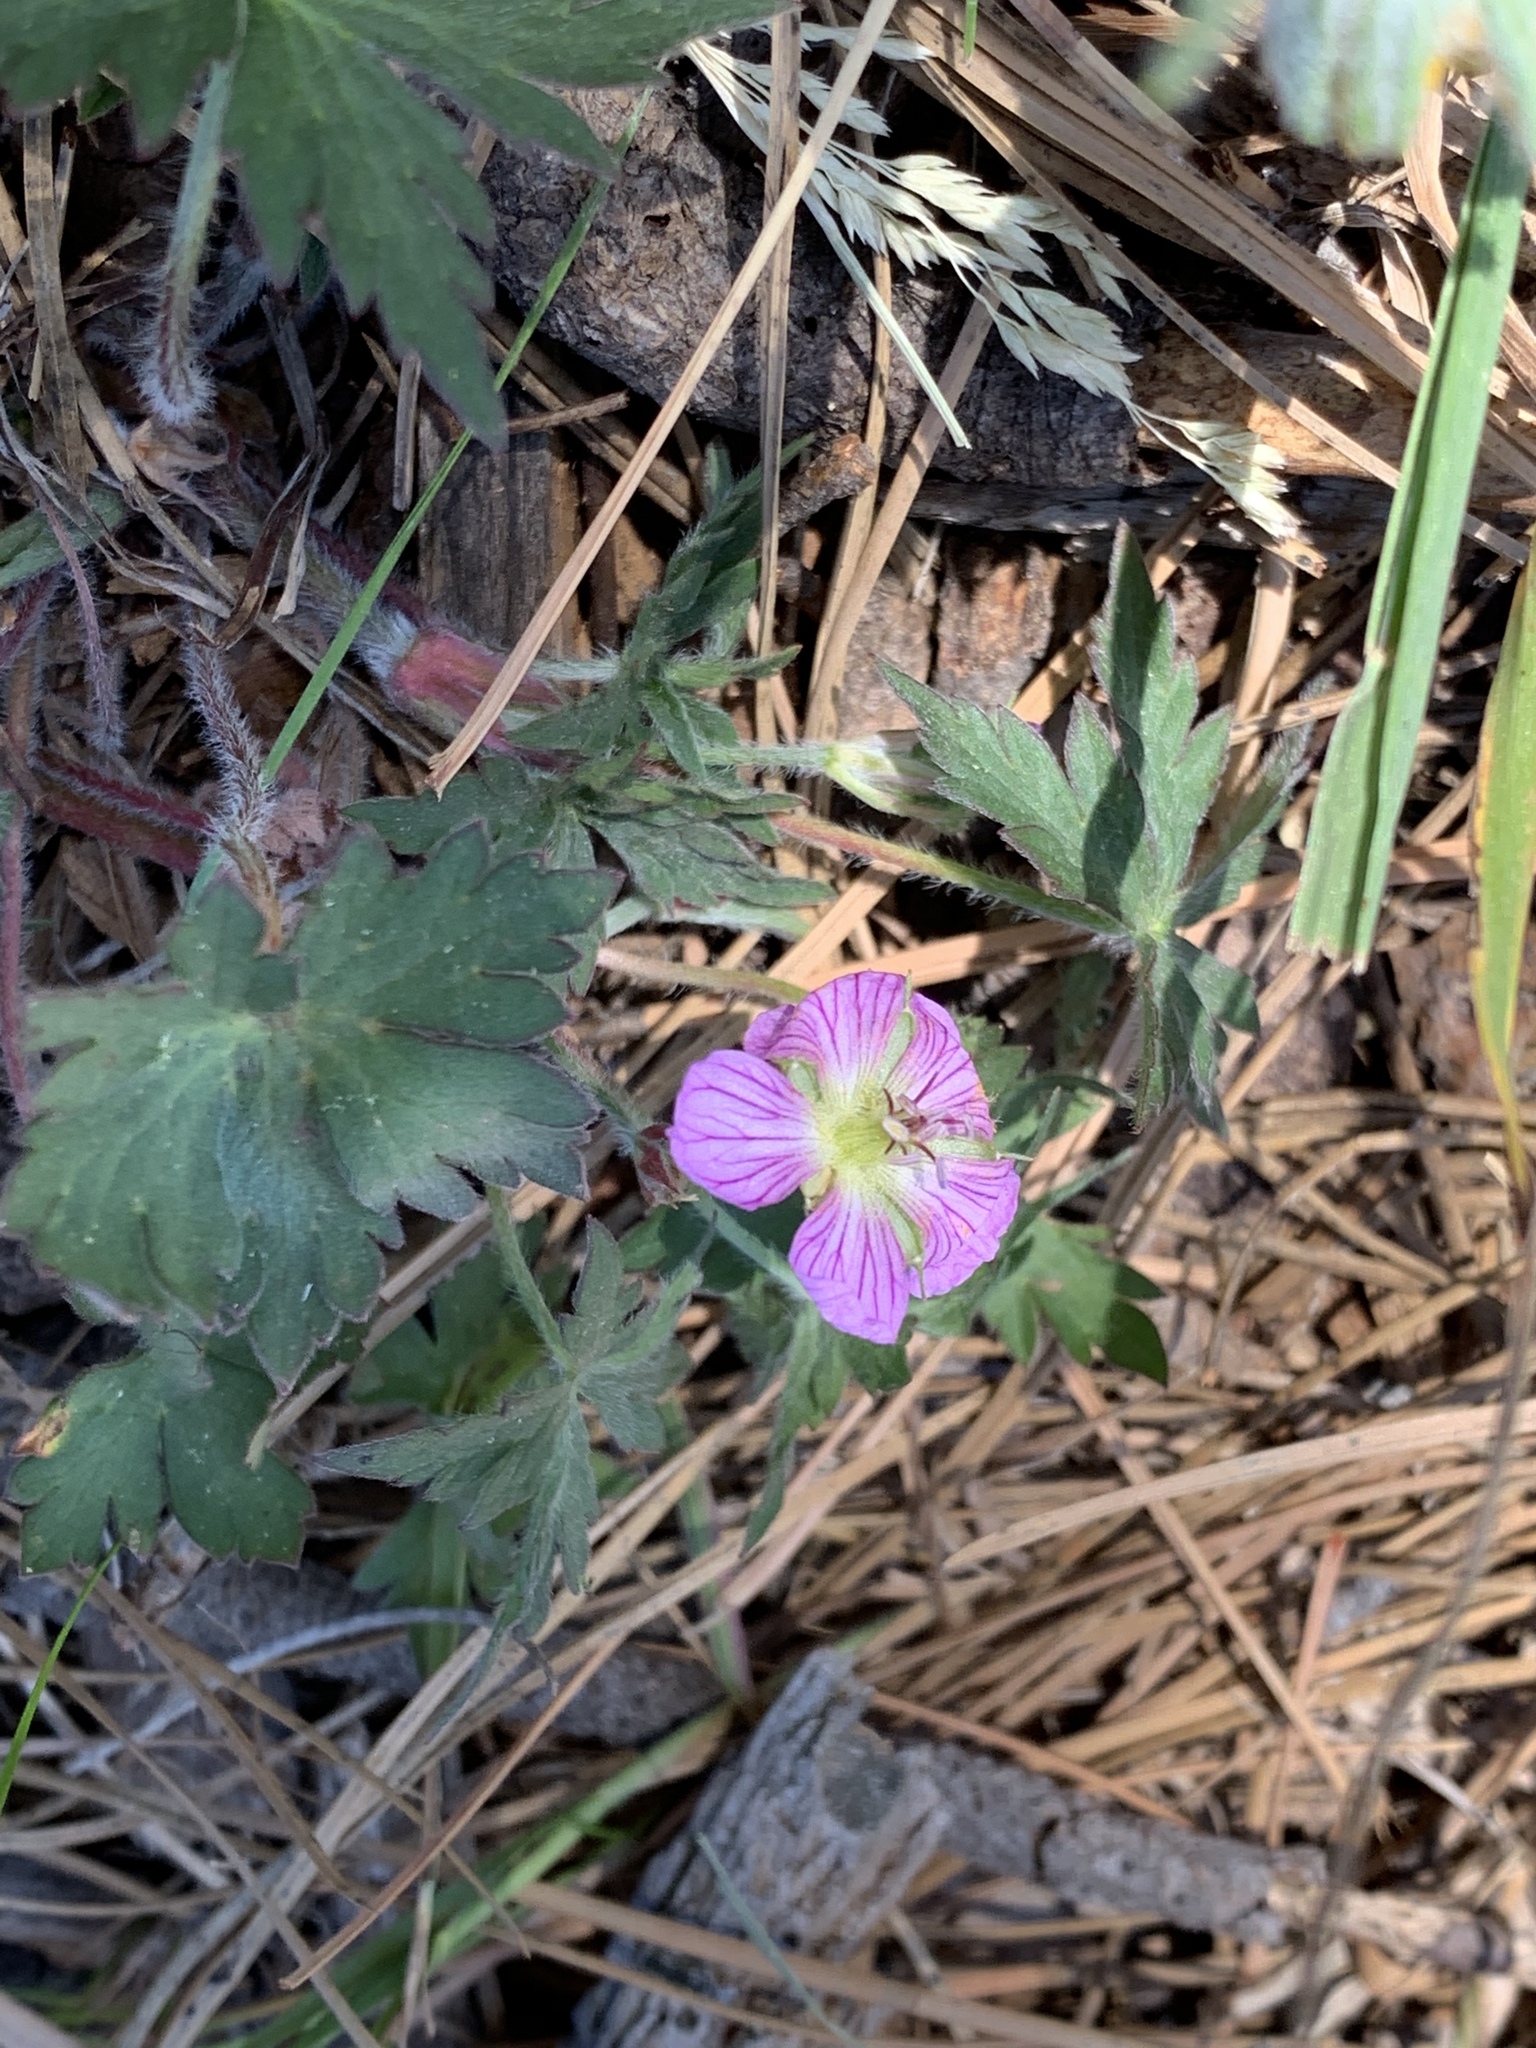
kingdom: Plantae
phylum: Tracheophyta
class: Magnoliopsida
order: Geraniales
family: Geraniaceae
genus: Geranium
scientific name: Geranium richardsonii
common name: Richardson's crane's-bill
